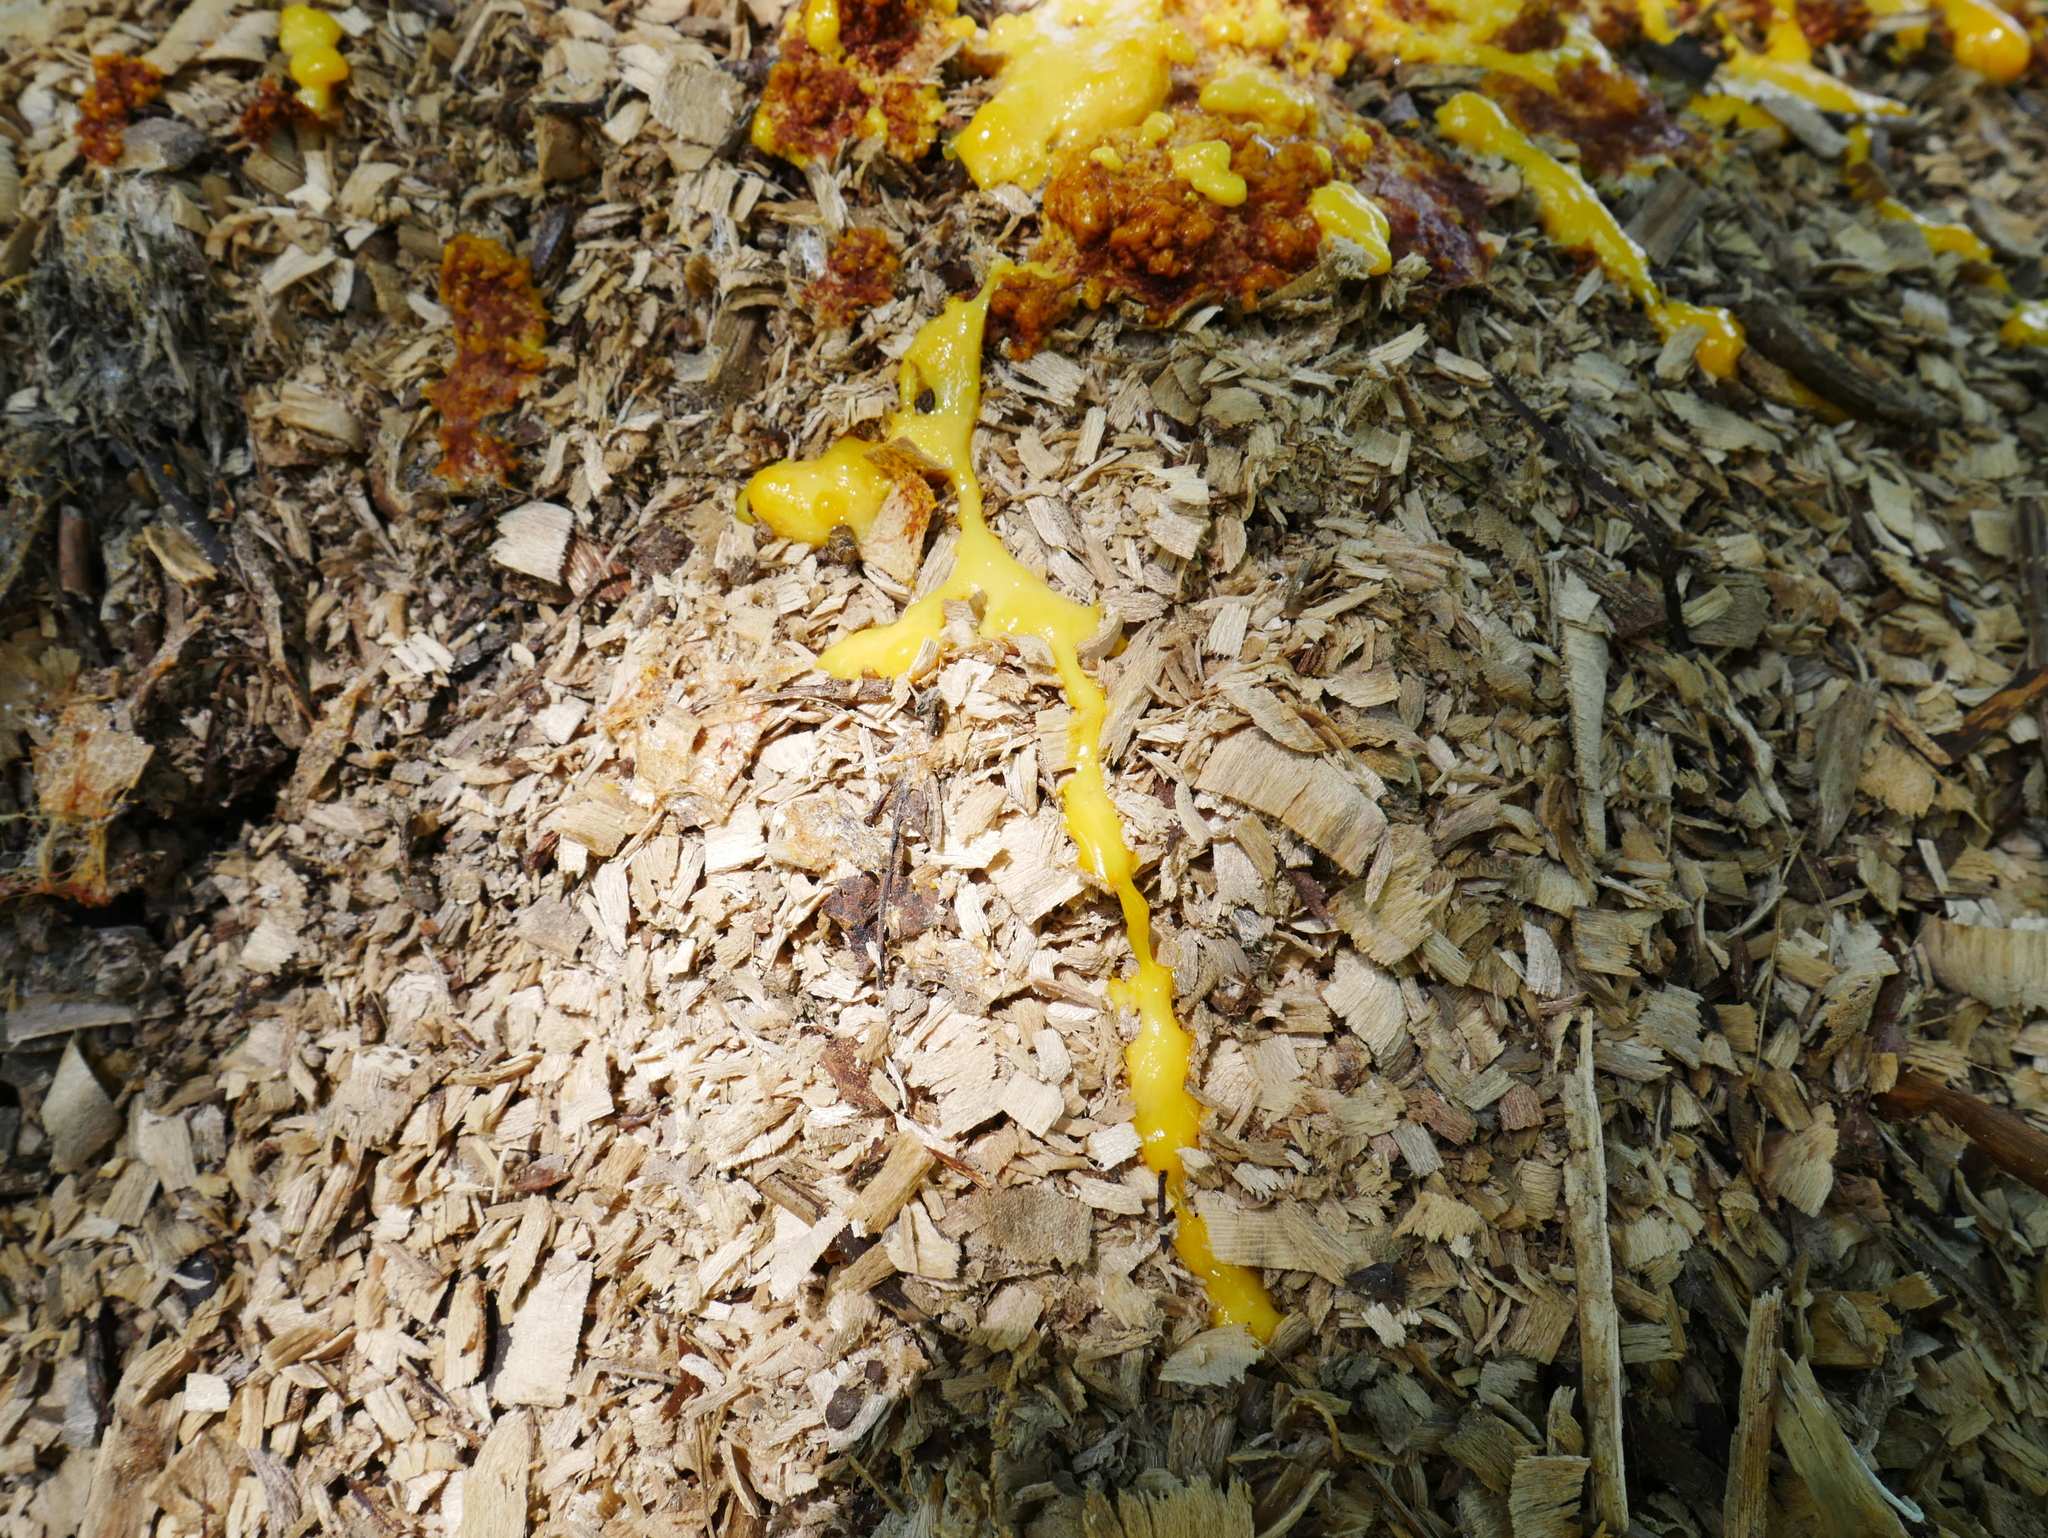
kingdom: Protozoa
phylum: Mycetozoa
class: Myxomycetes
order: Physarales
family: Physaraceae
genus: Fuligo
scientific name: Fuligo septica
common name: Dog vomit slime mold
